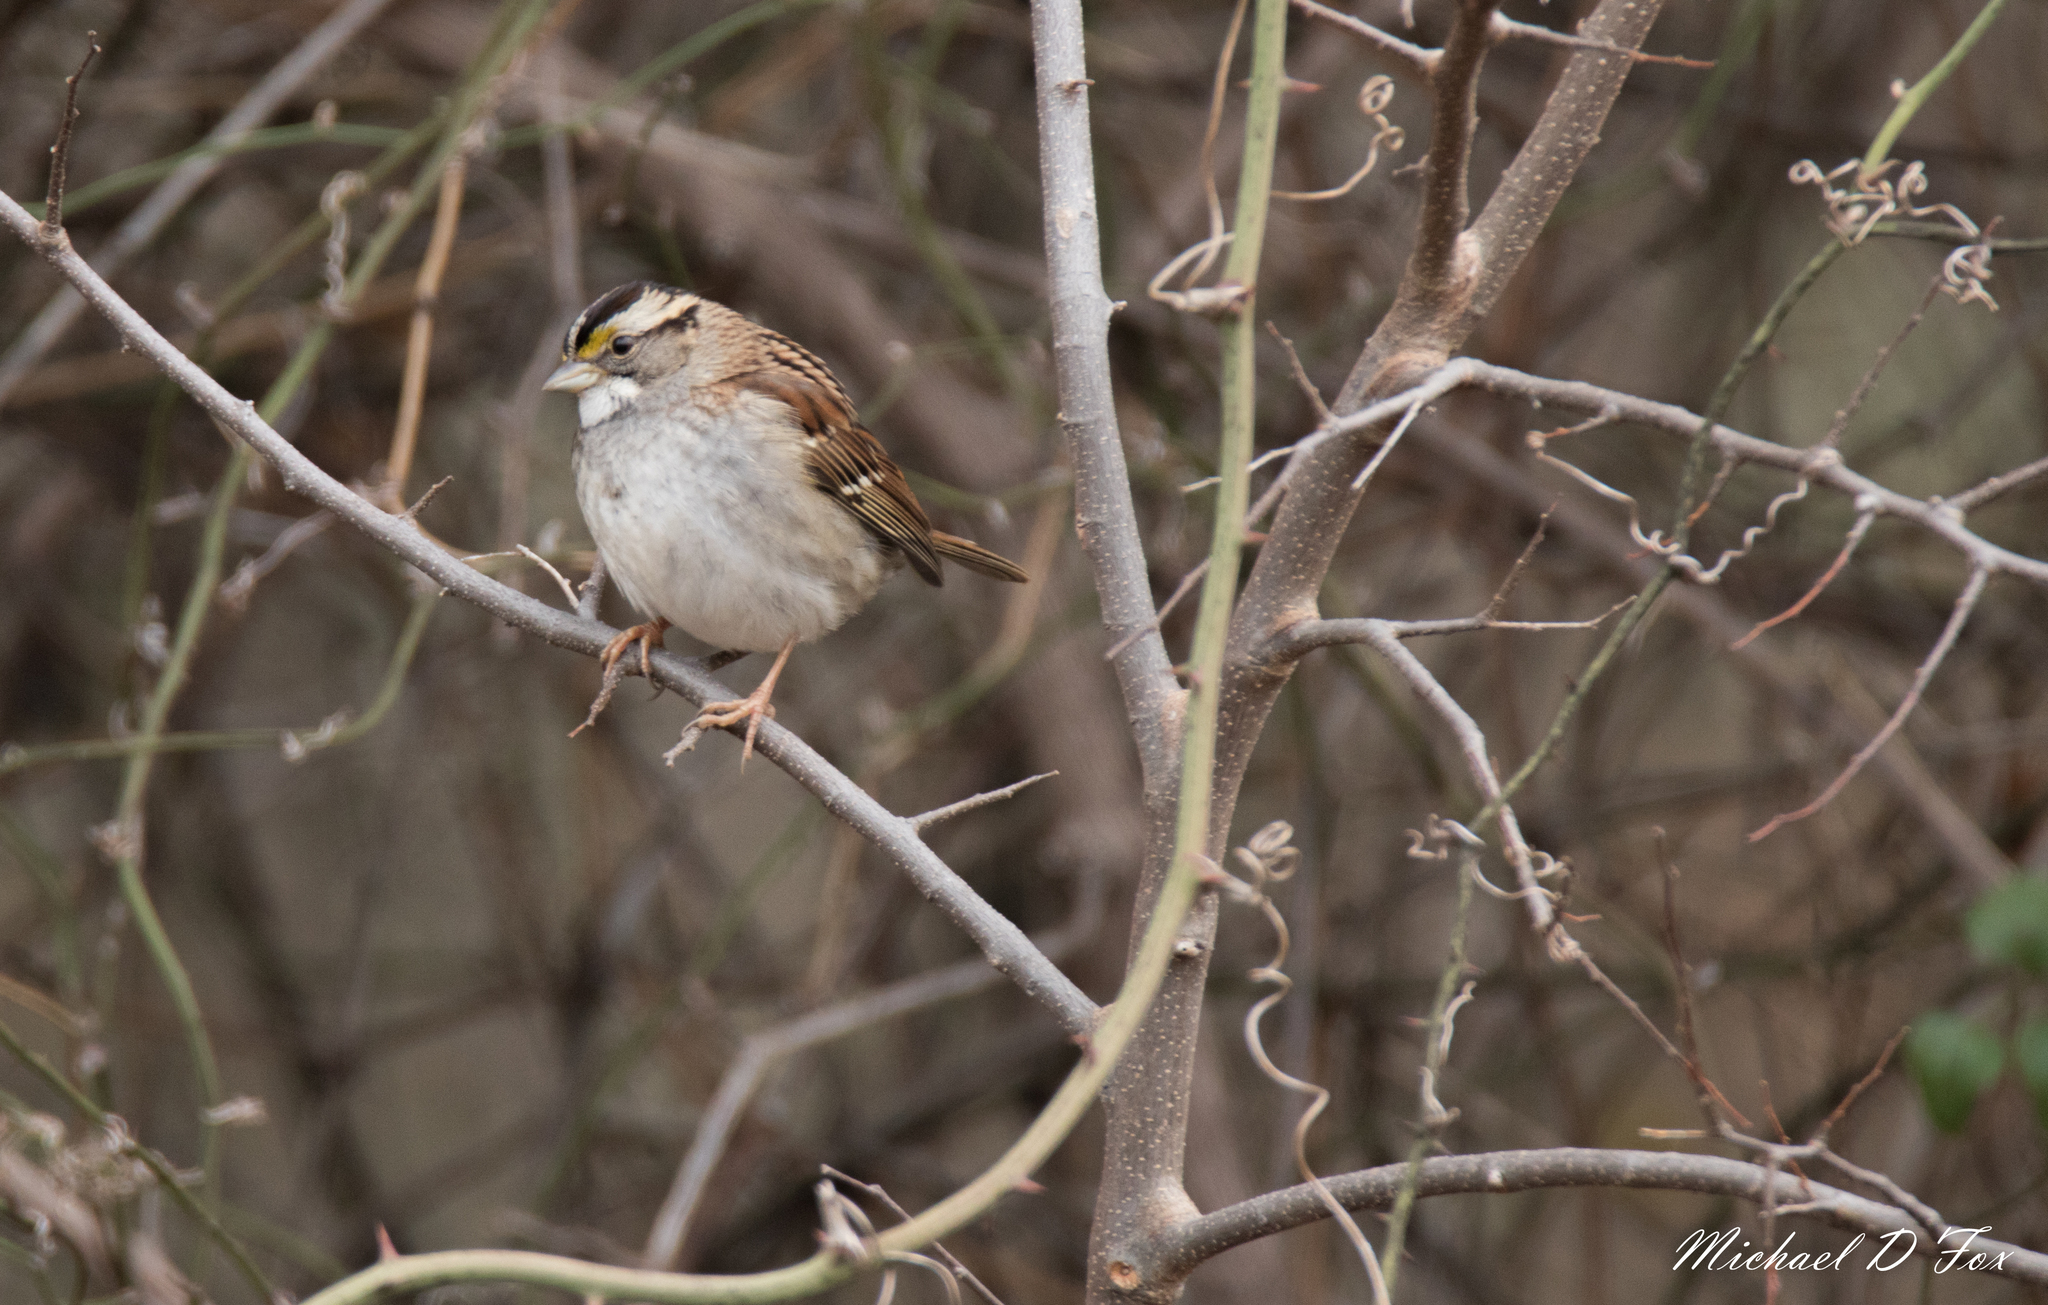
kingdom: Animalia
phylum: Chordata
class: Aves
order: Passeriformes
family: Passerellidae
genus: Zonotrichia
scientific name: Zonotrichia albicollis
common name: White-throated sparrow
